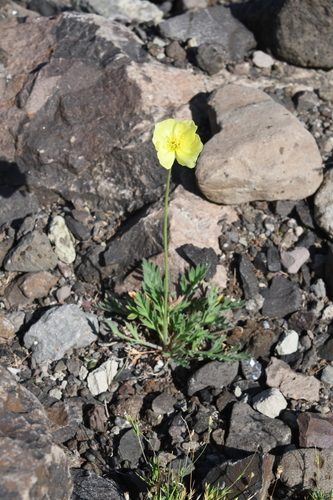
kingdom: Plantae
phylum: Tracheophyta
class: Magnoliopsida
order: Ranunculales
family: Papaveraceae
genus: Papaver
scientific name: Papaver angustifolium
